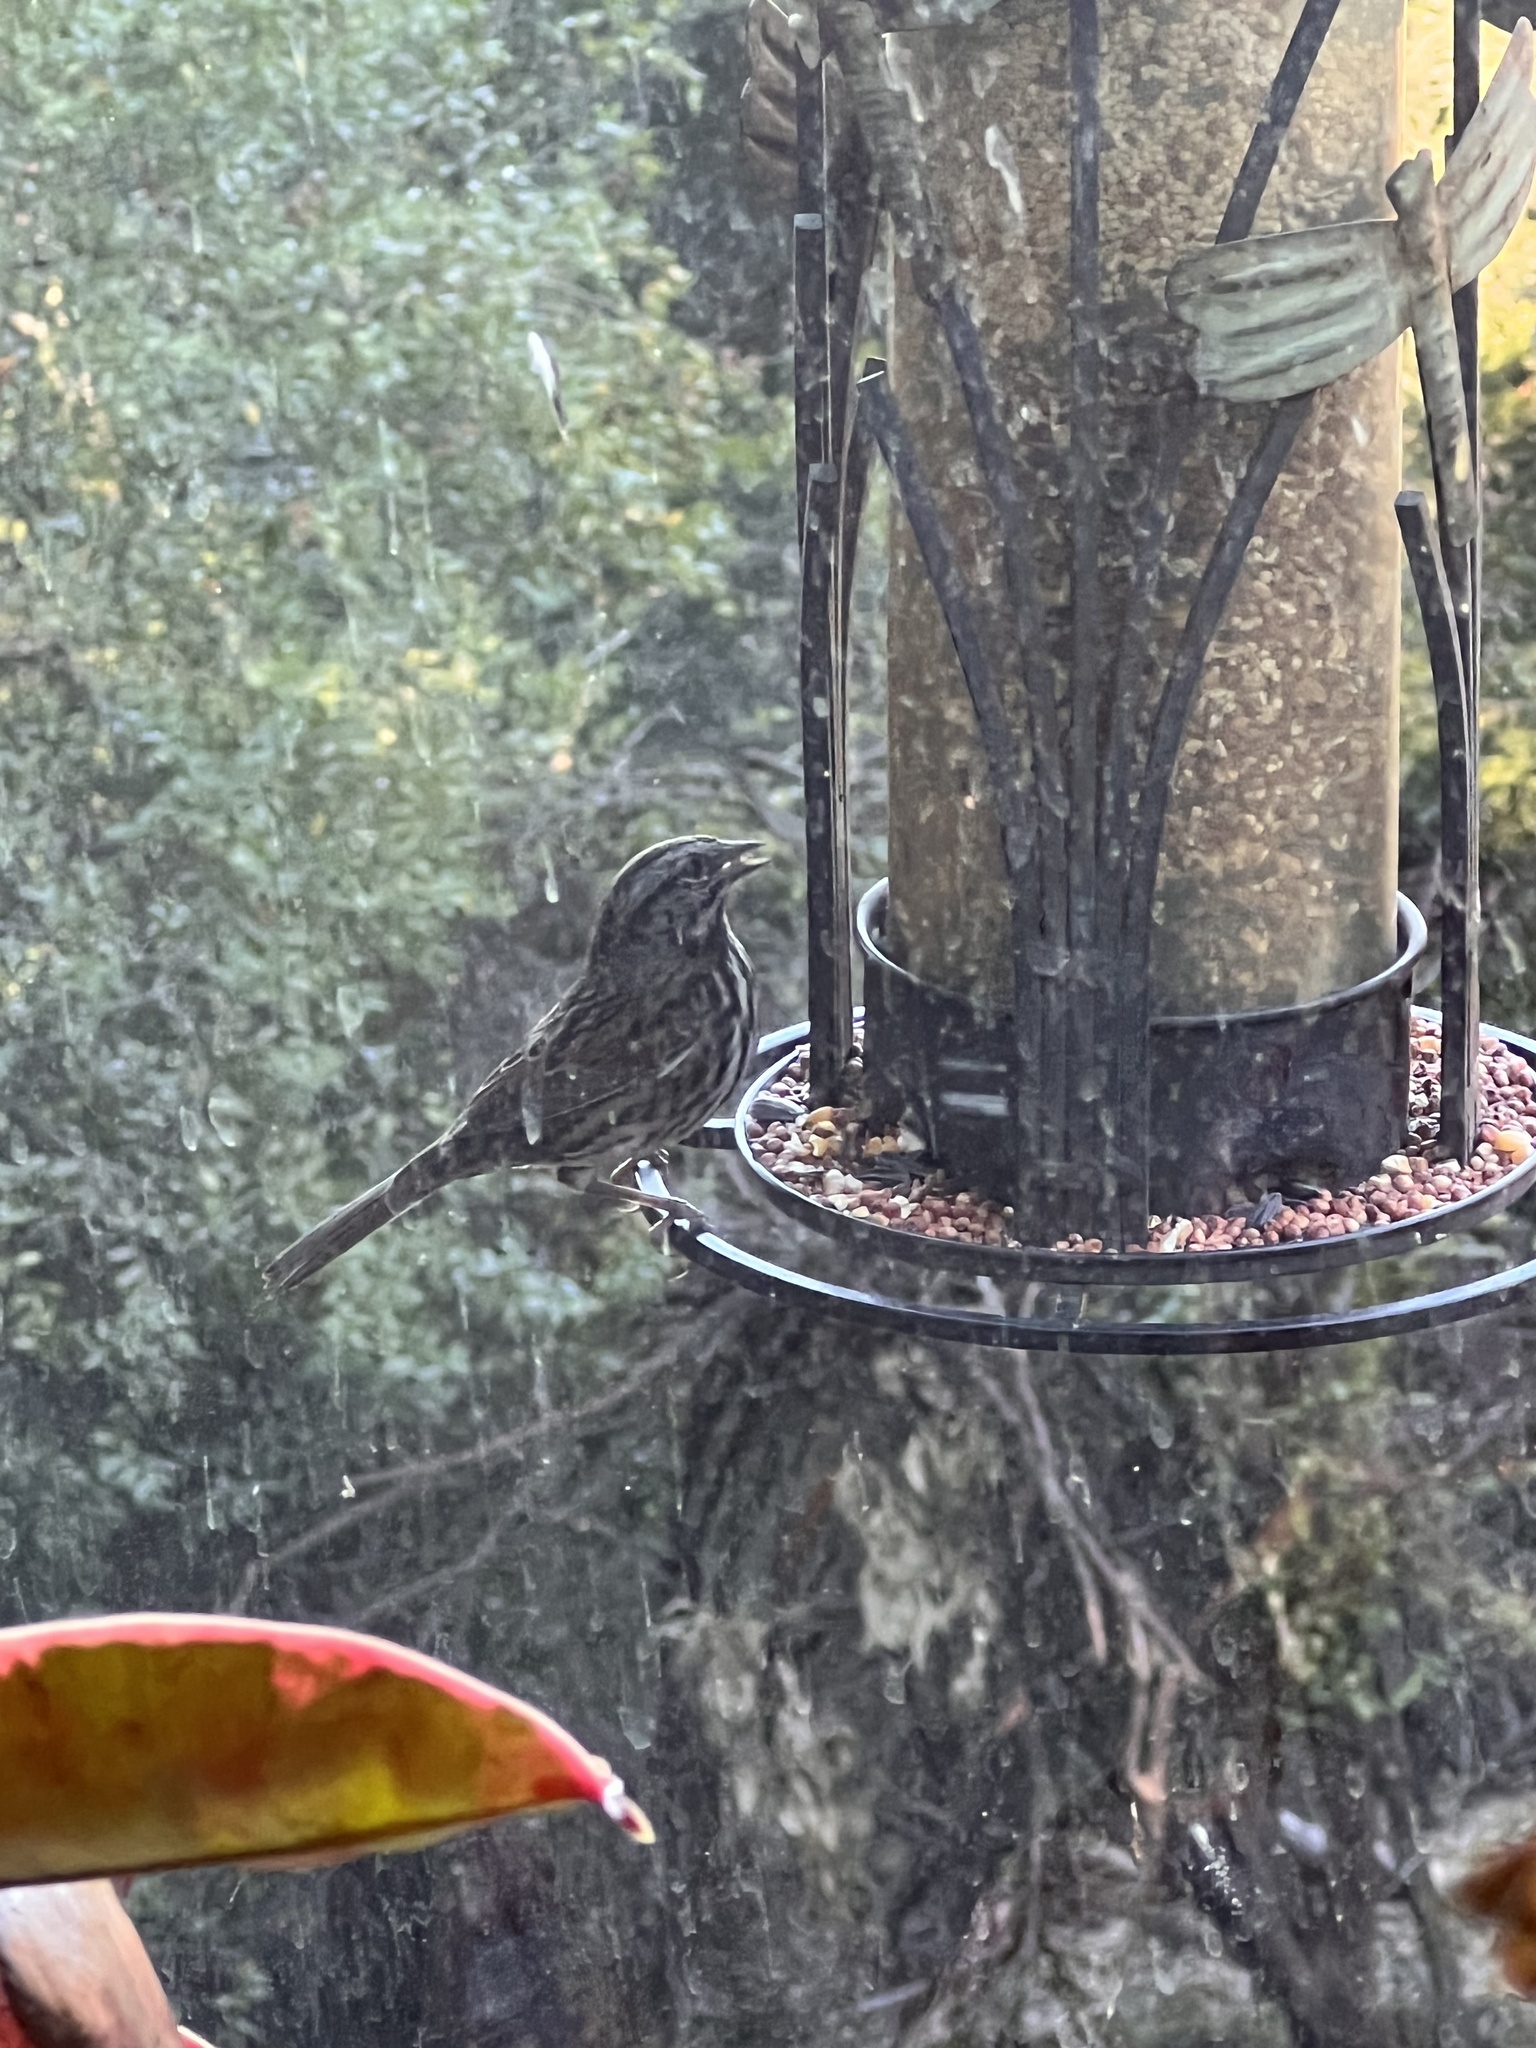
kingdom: Animalia
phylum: Chordata
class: Aves
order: Passeriformes
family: Passerellidae
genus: Melospiza
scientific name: Melospiza melodia
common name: Song sparrow
